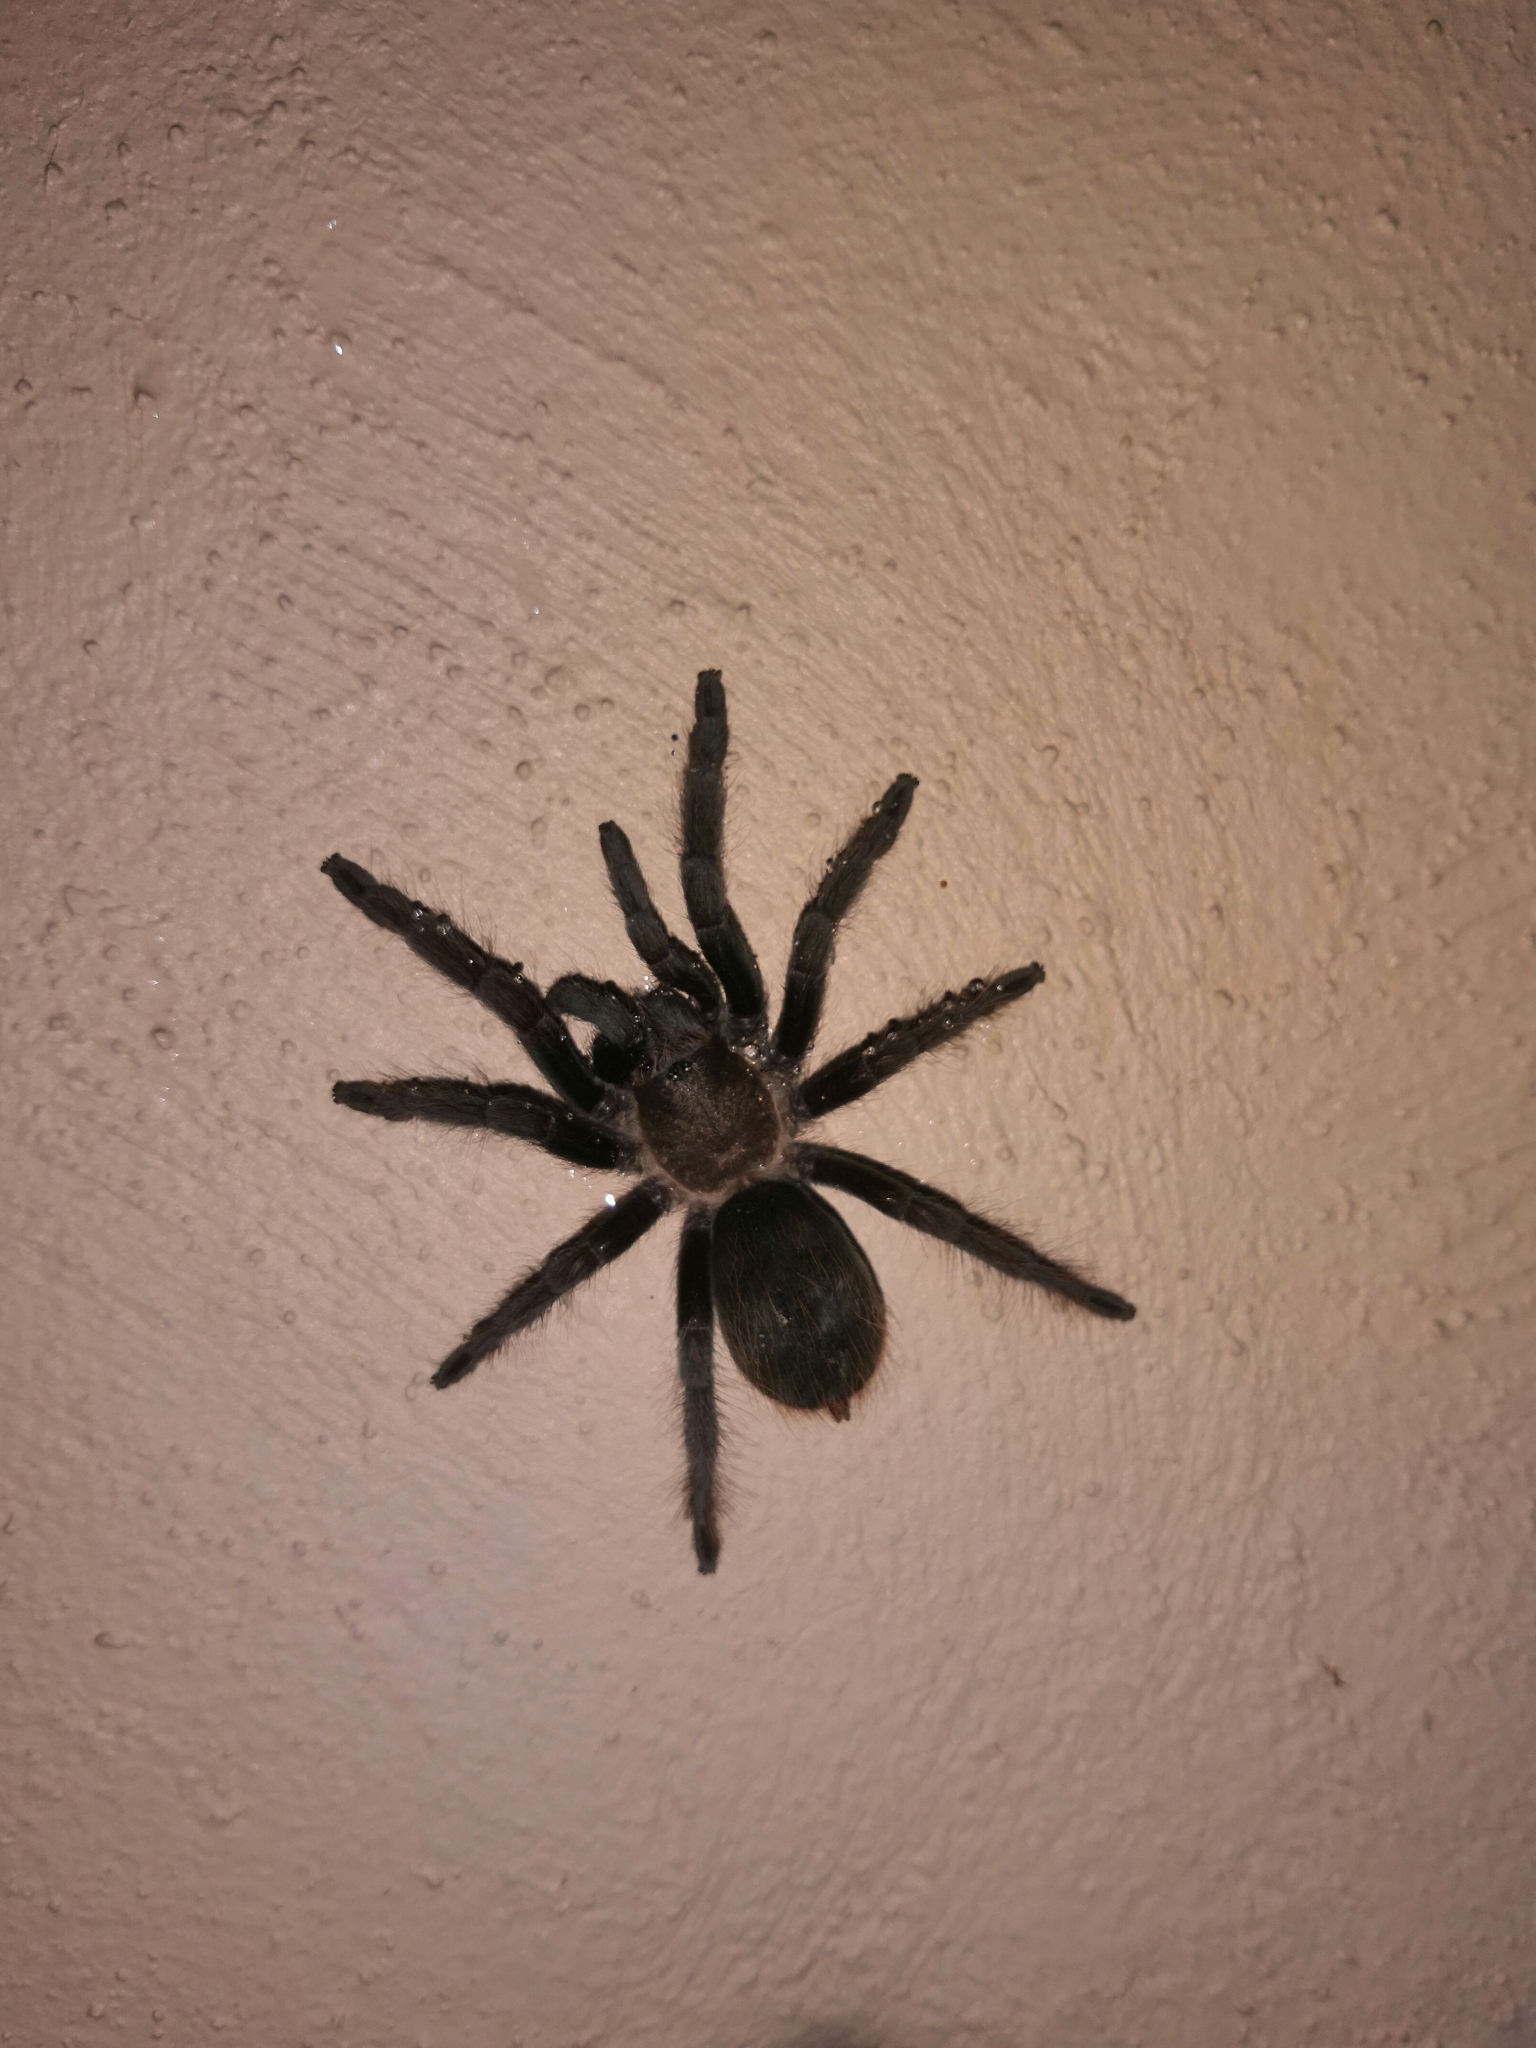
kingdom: Animalia
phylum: Arthropoda
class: Arachnida
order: Araneae
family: Theraphosidae
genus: Tliltocatl
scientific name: Tliltocatl epicureanus
